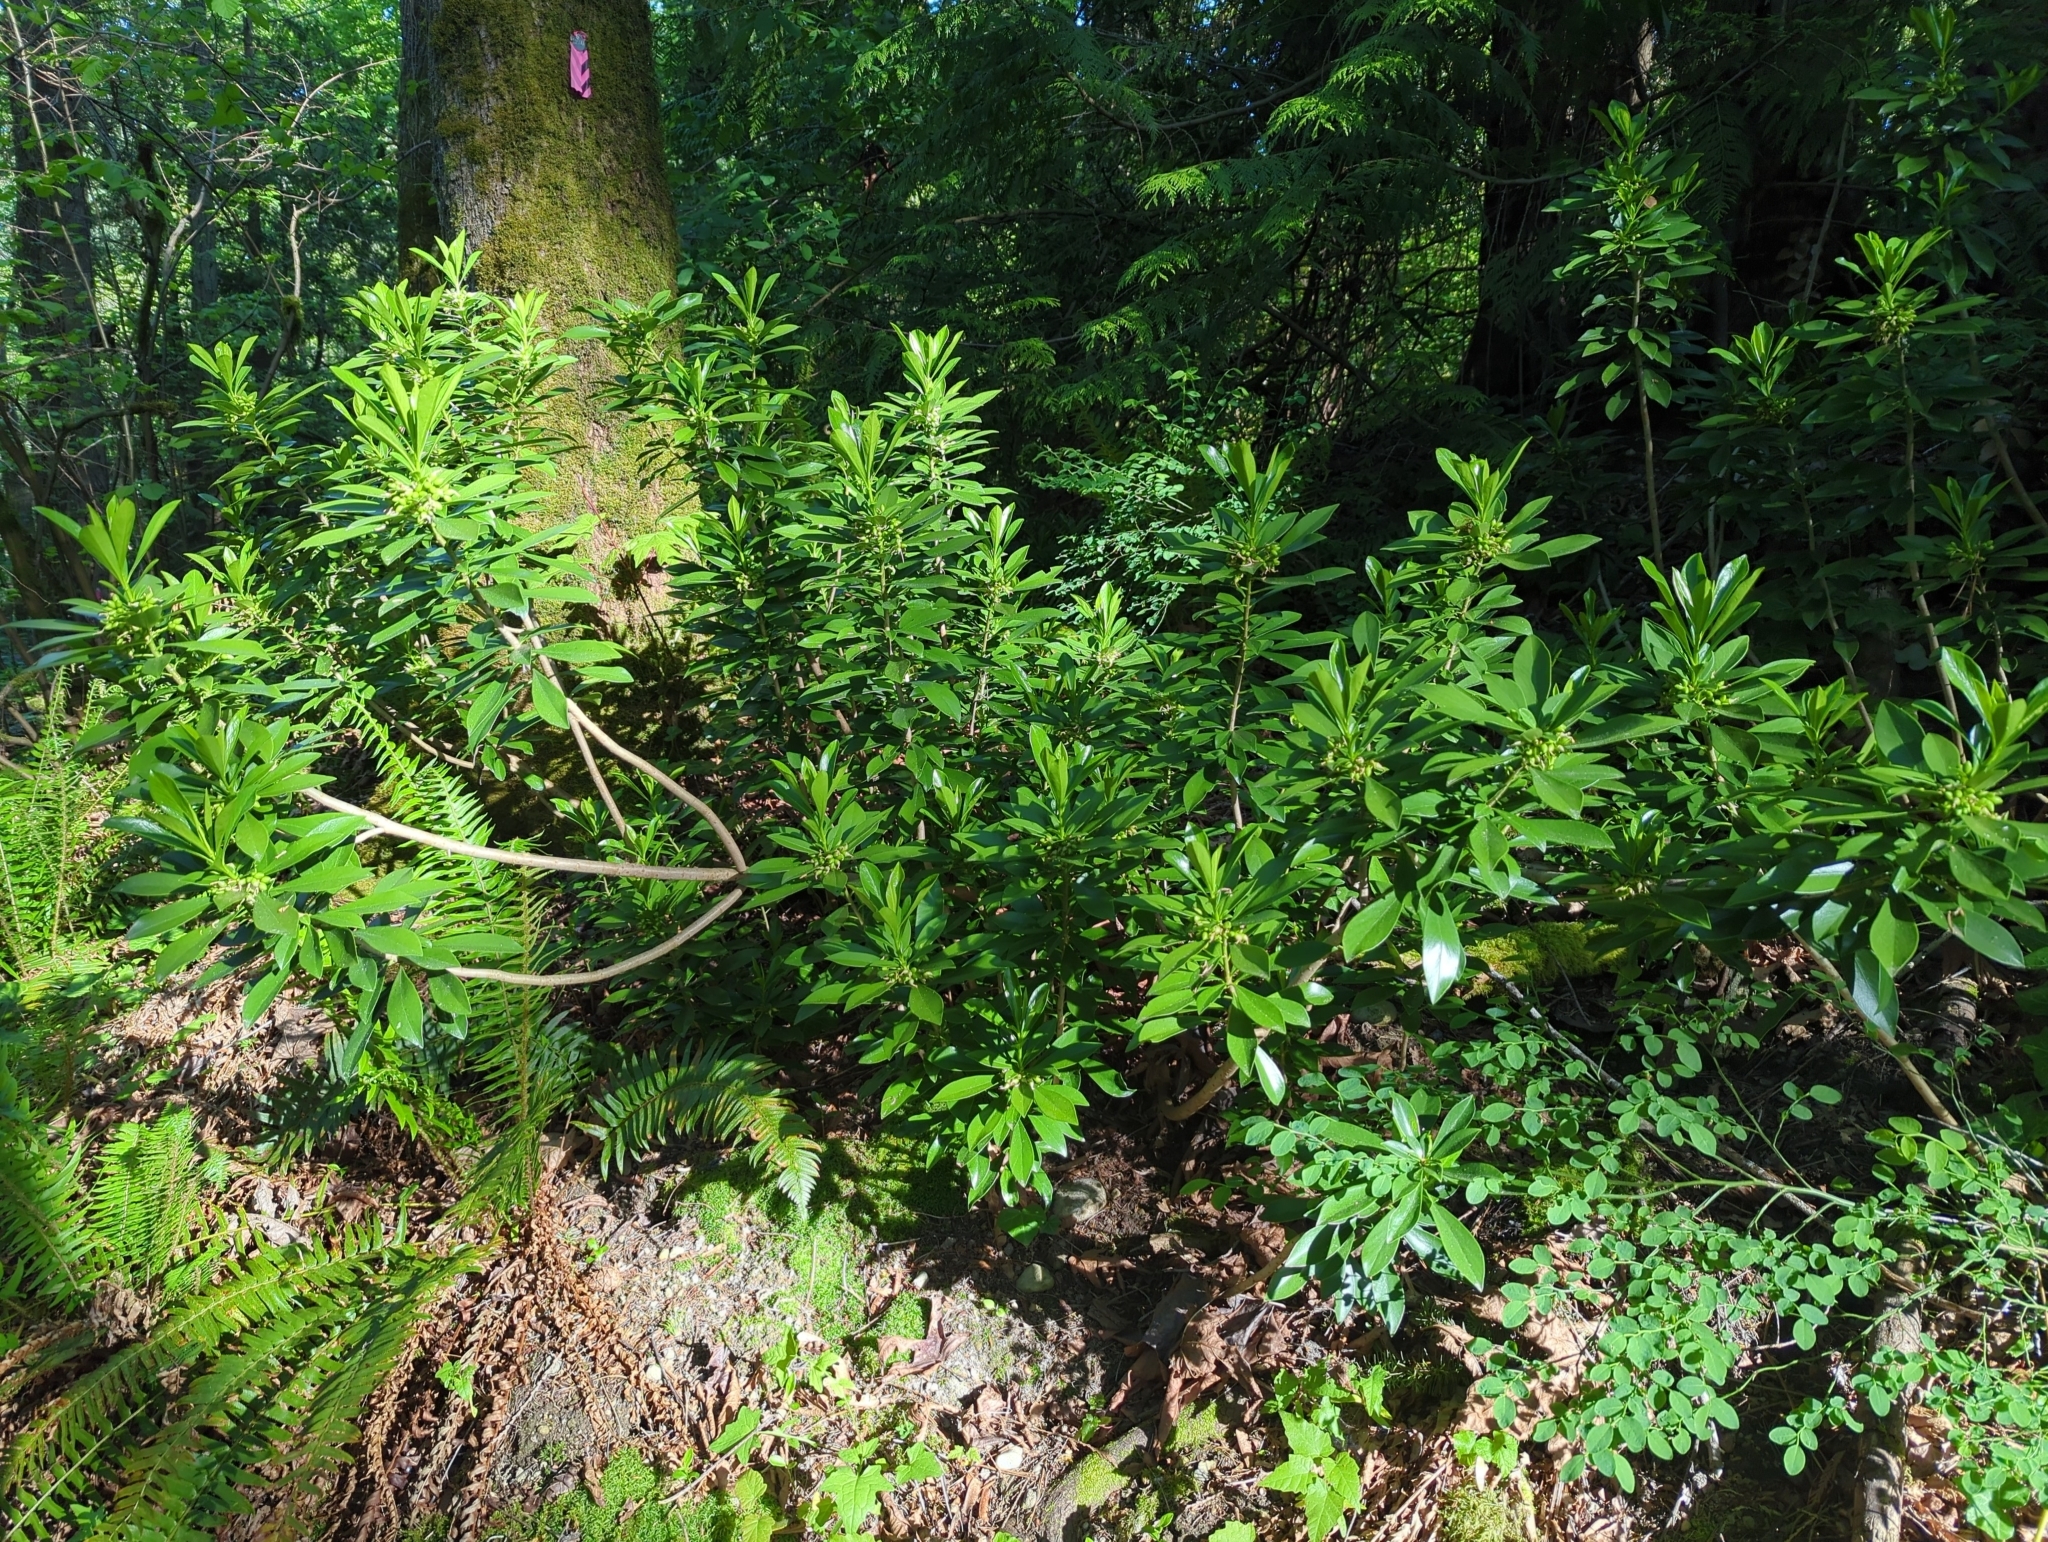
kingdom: Plantae
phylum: Tracheophyta
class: Magnoliopsida
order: Malvales
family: Thymelaeaceae
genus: Daphne
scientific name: Daphne laureola
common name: Spurge-laurel
